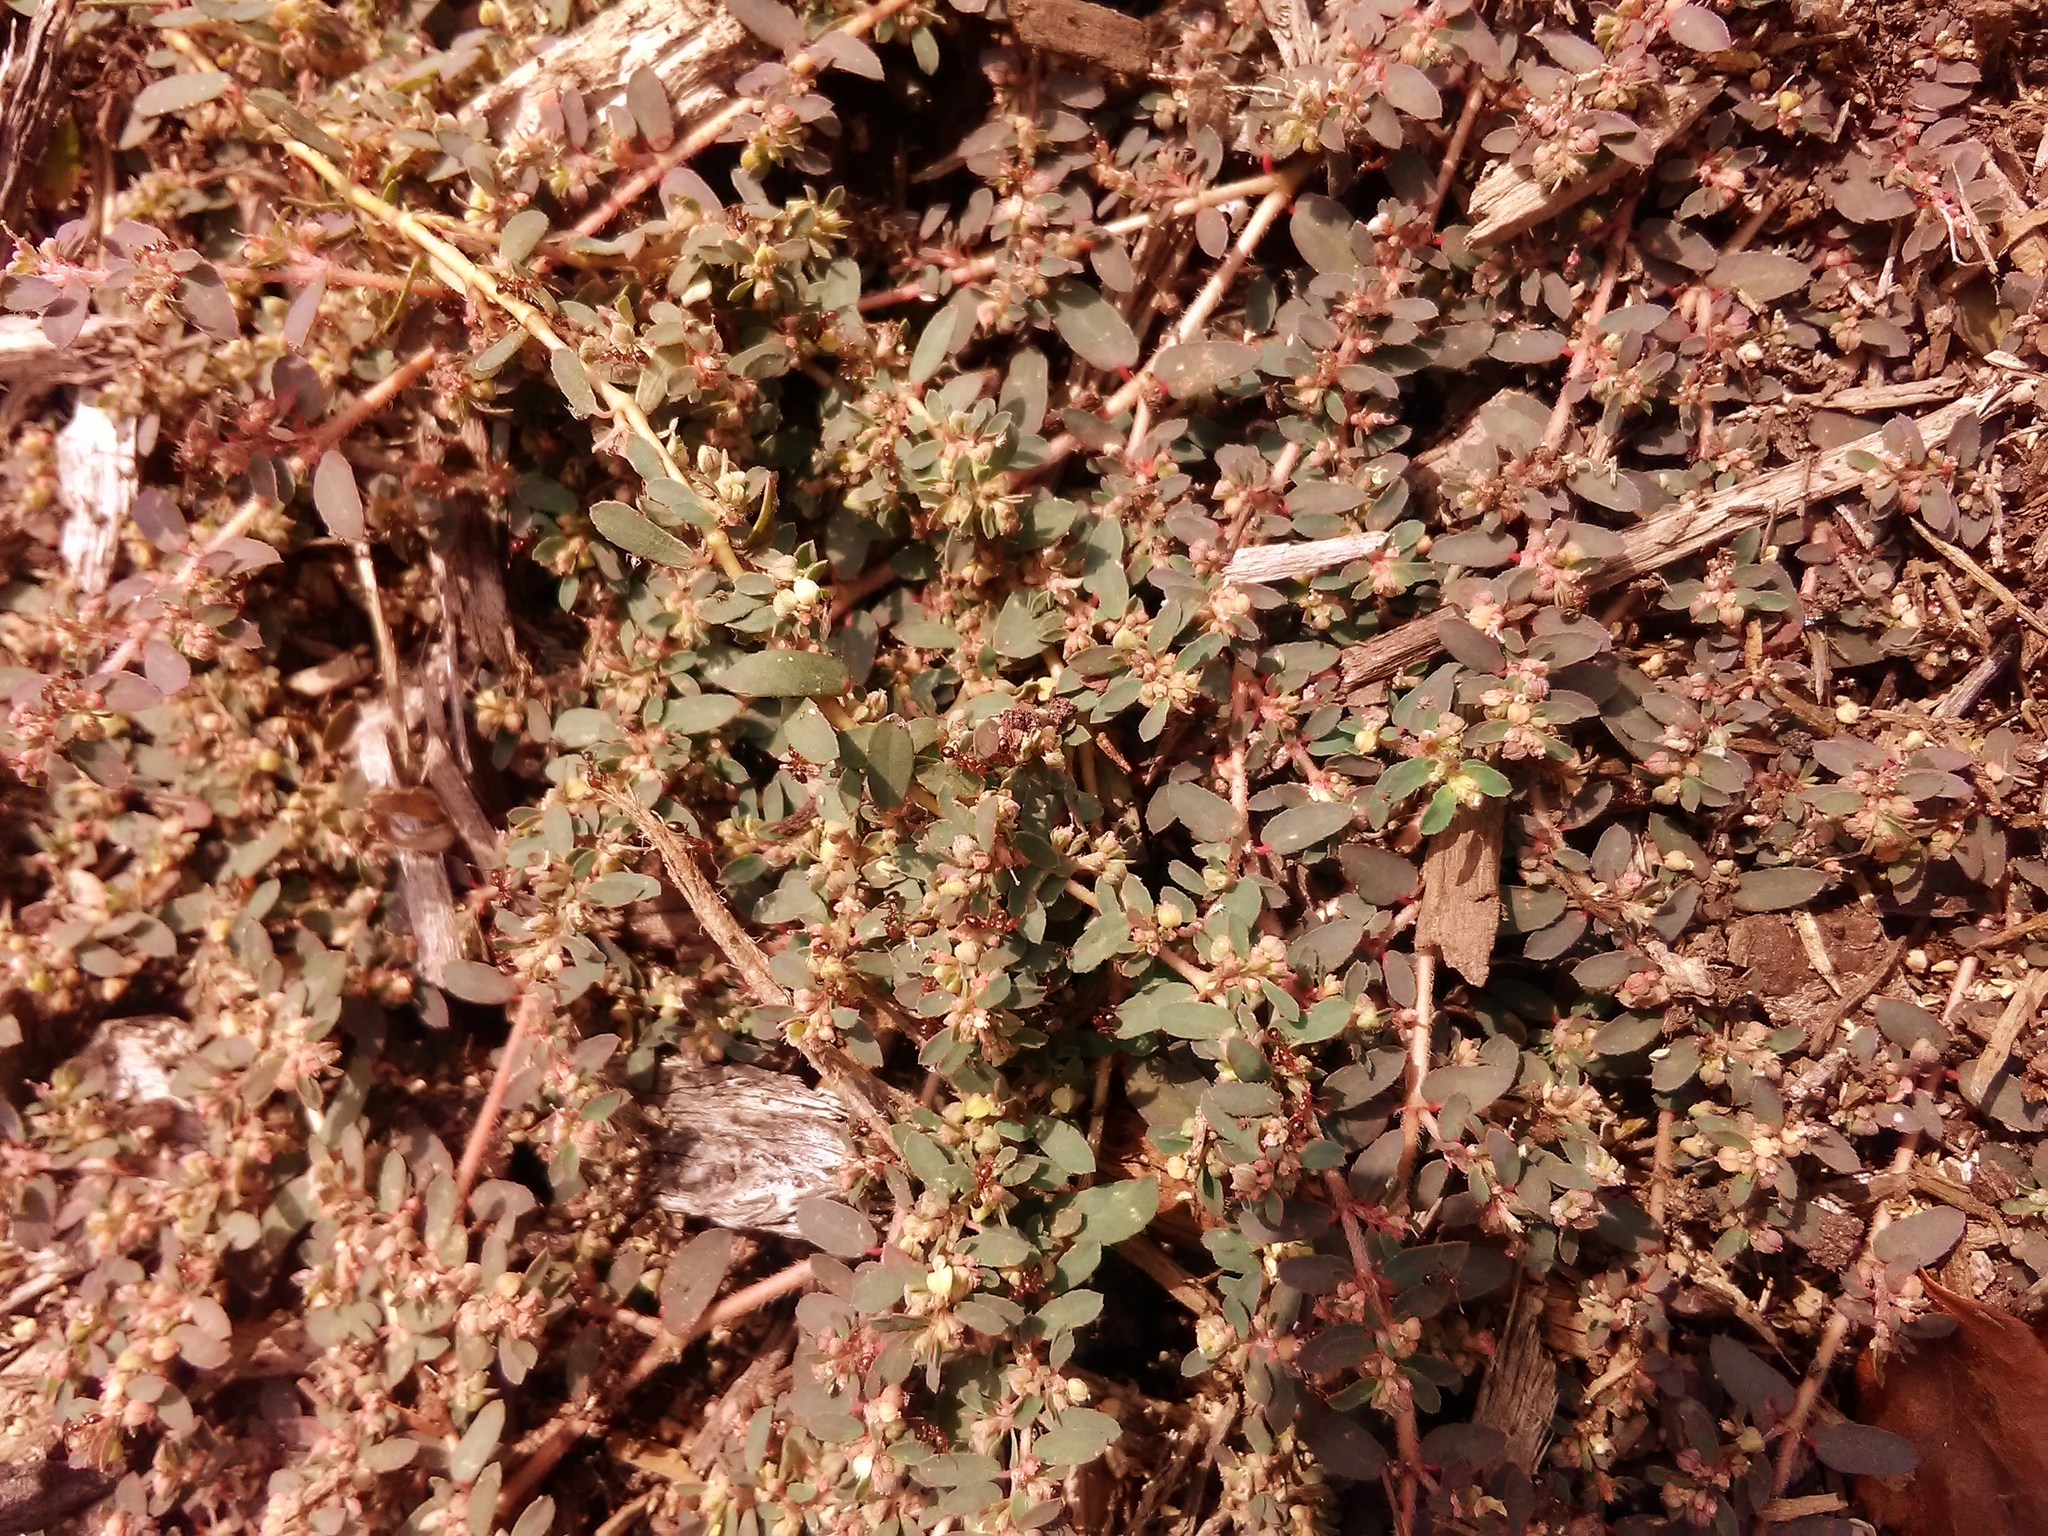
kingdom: Plantae
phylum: Tracheophyta
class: Magnoliopsida
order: Malpighiales
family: Euphorbiaceae
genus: Euphorbia
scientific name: Euphorbia maculata
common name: Spotted spurge
